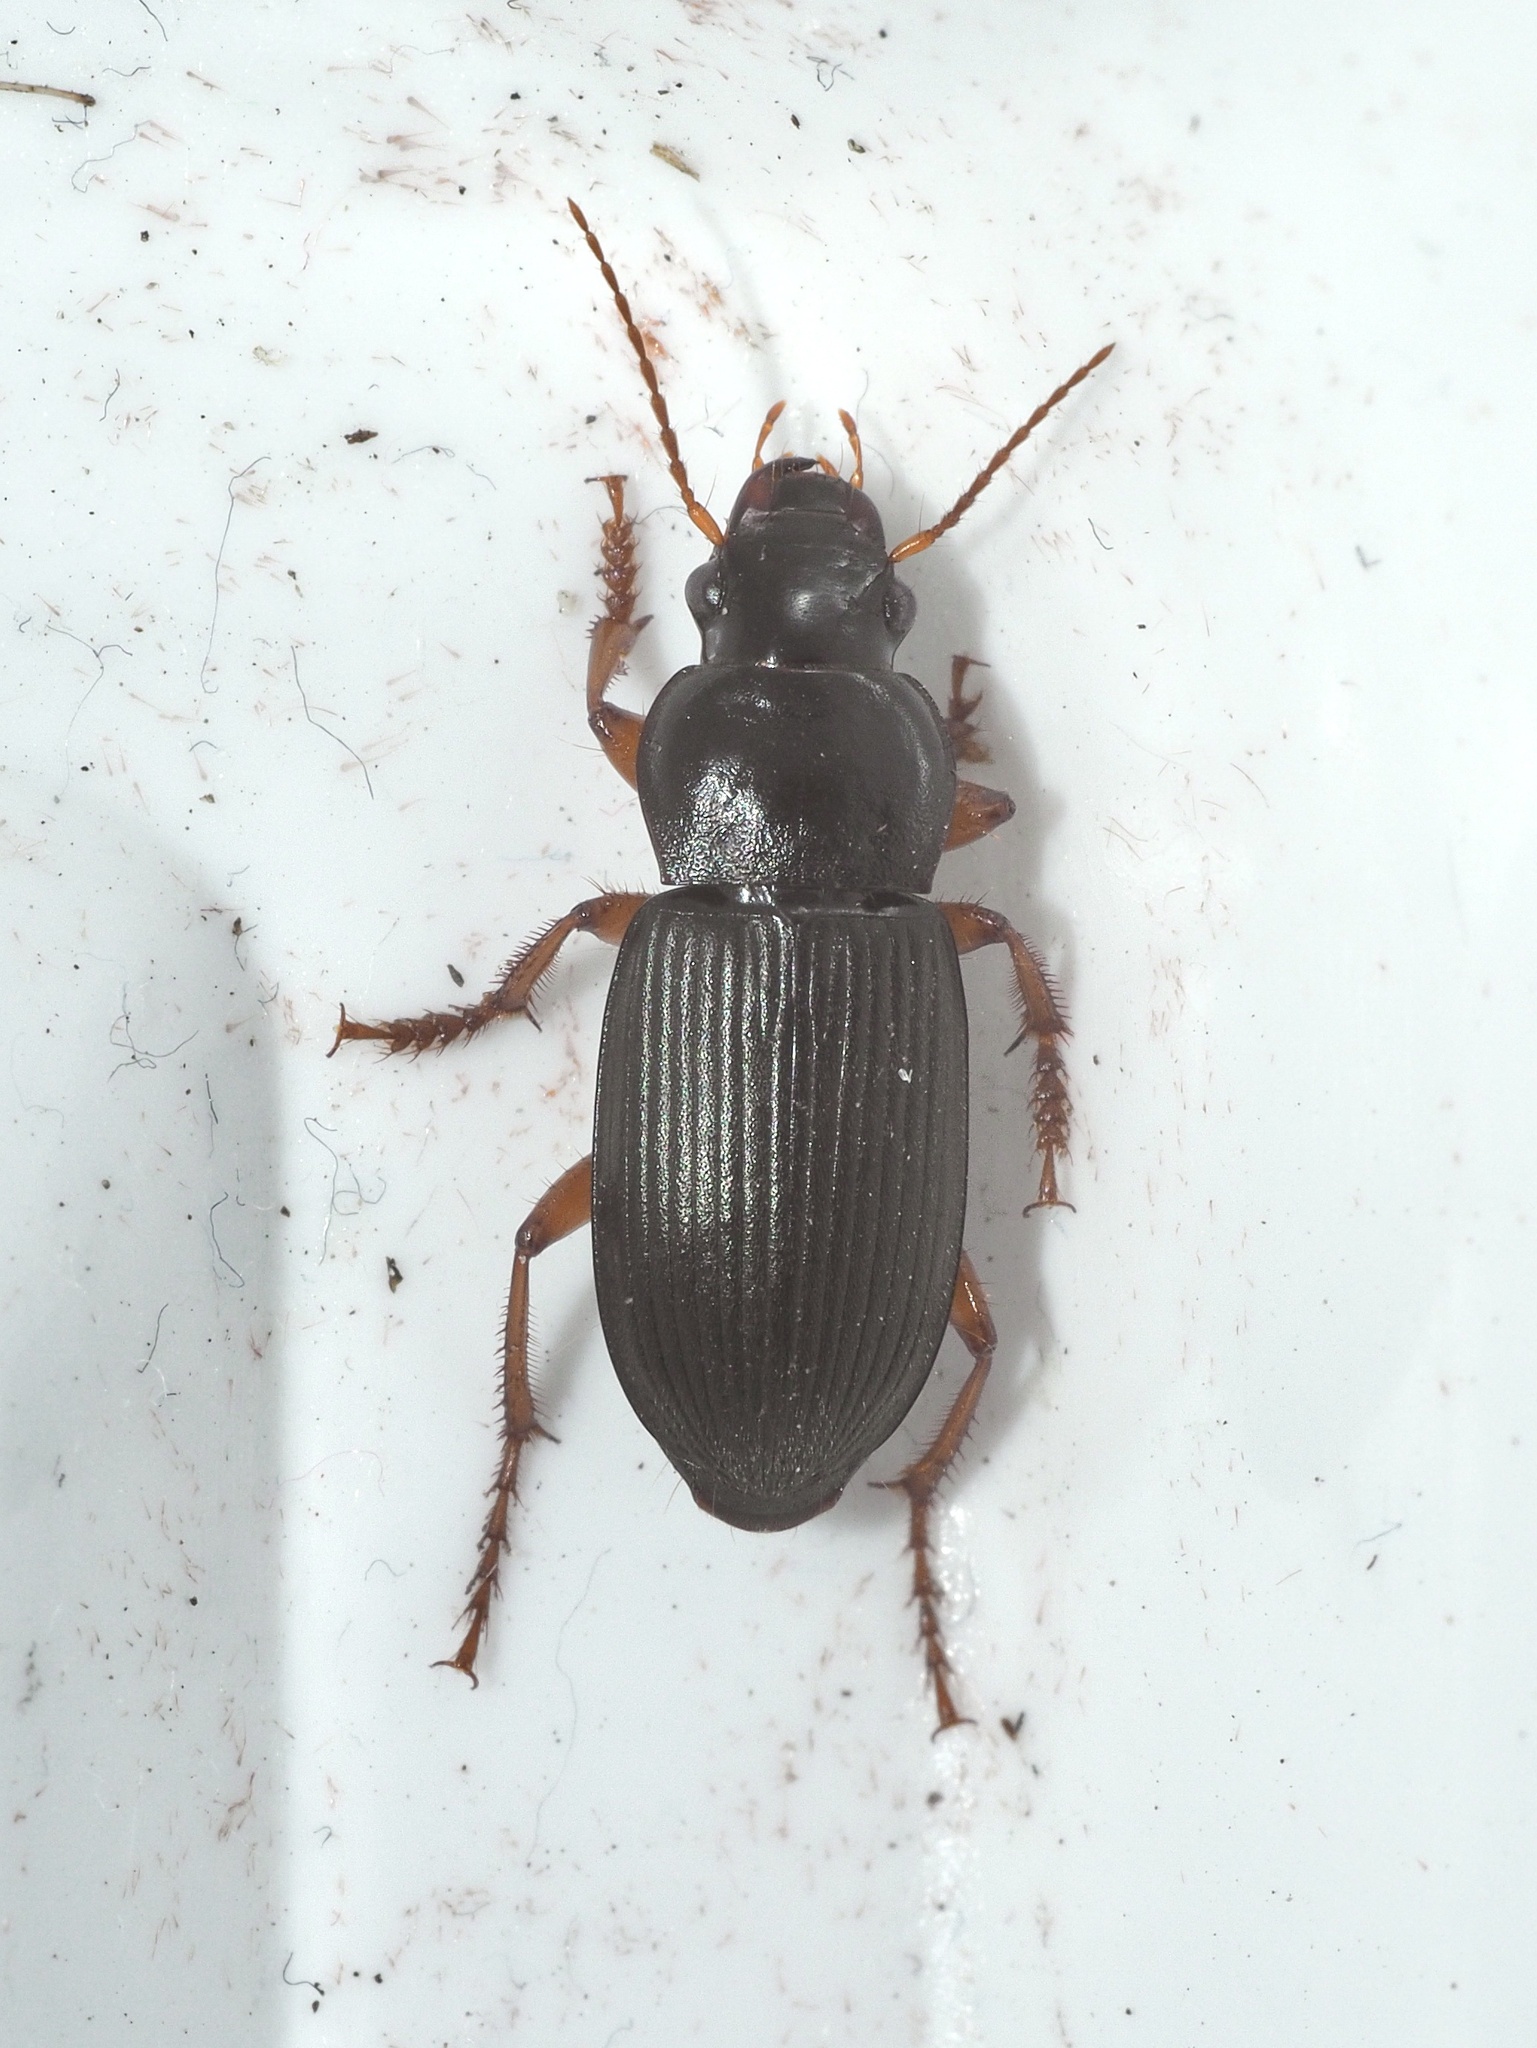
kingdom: Animalia
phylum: Arthropoda
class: Insecta
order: Coleoptera
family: Carabidae
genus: Harpalus
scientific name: Harpalus rufipes
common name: Strawberry harp ground beetle
